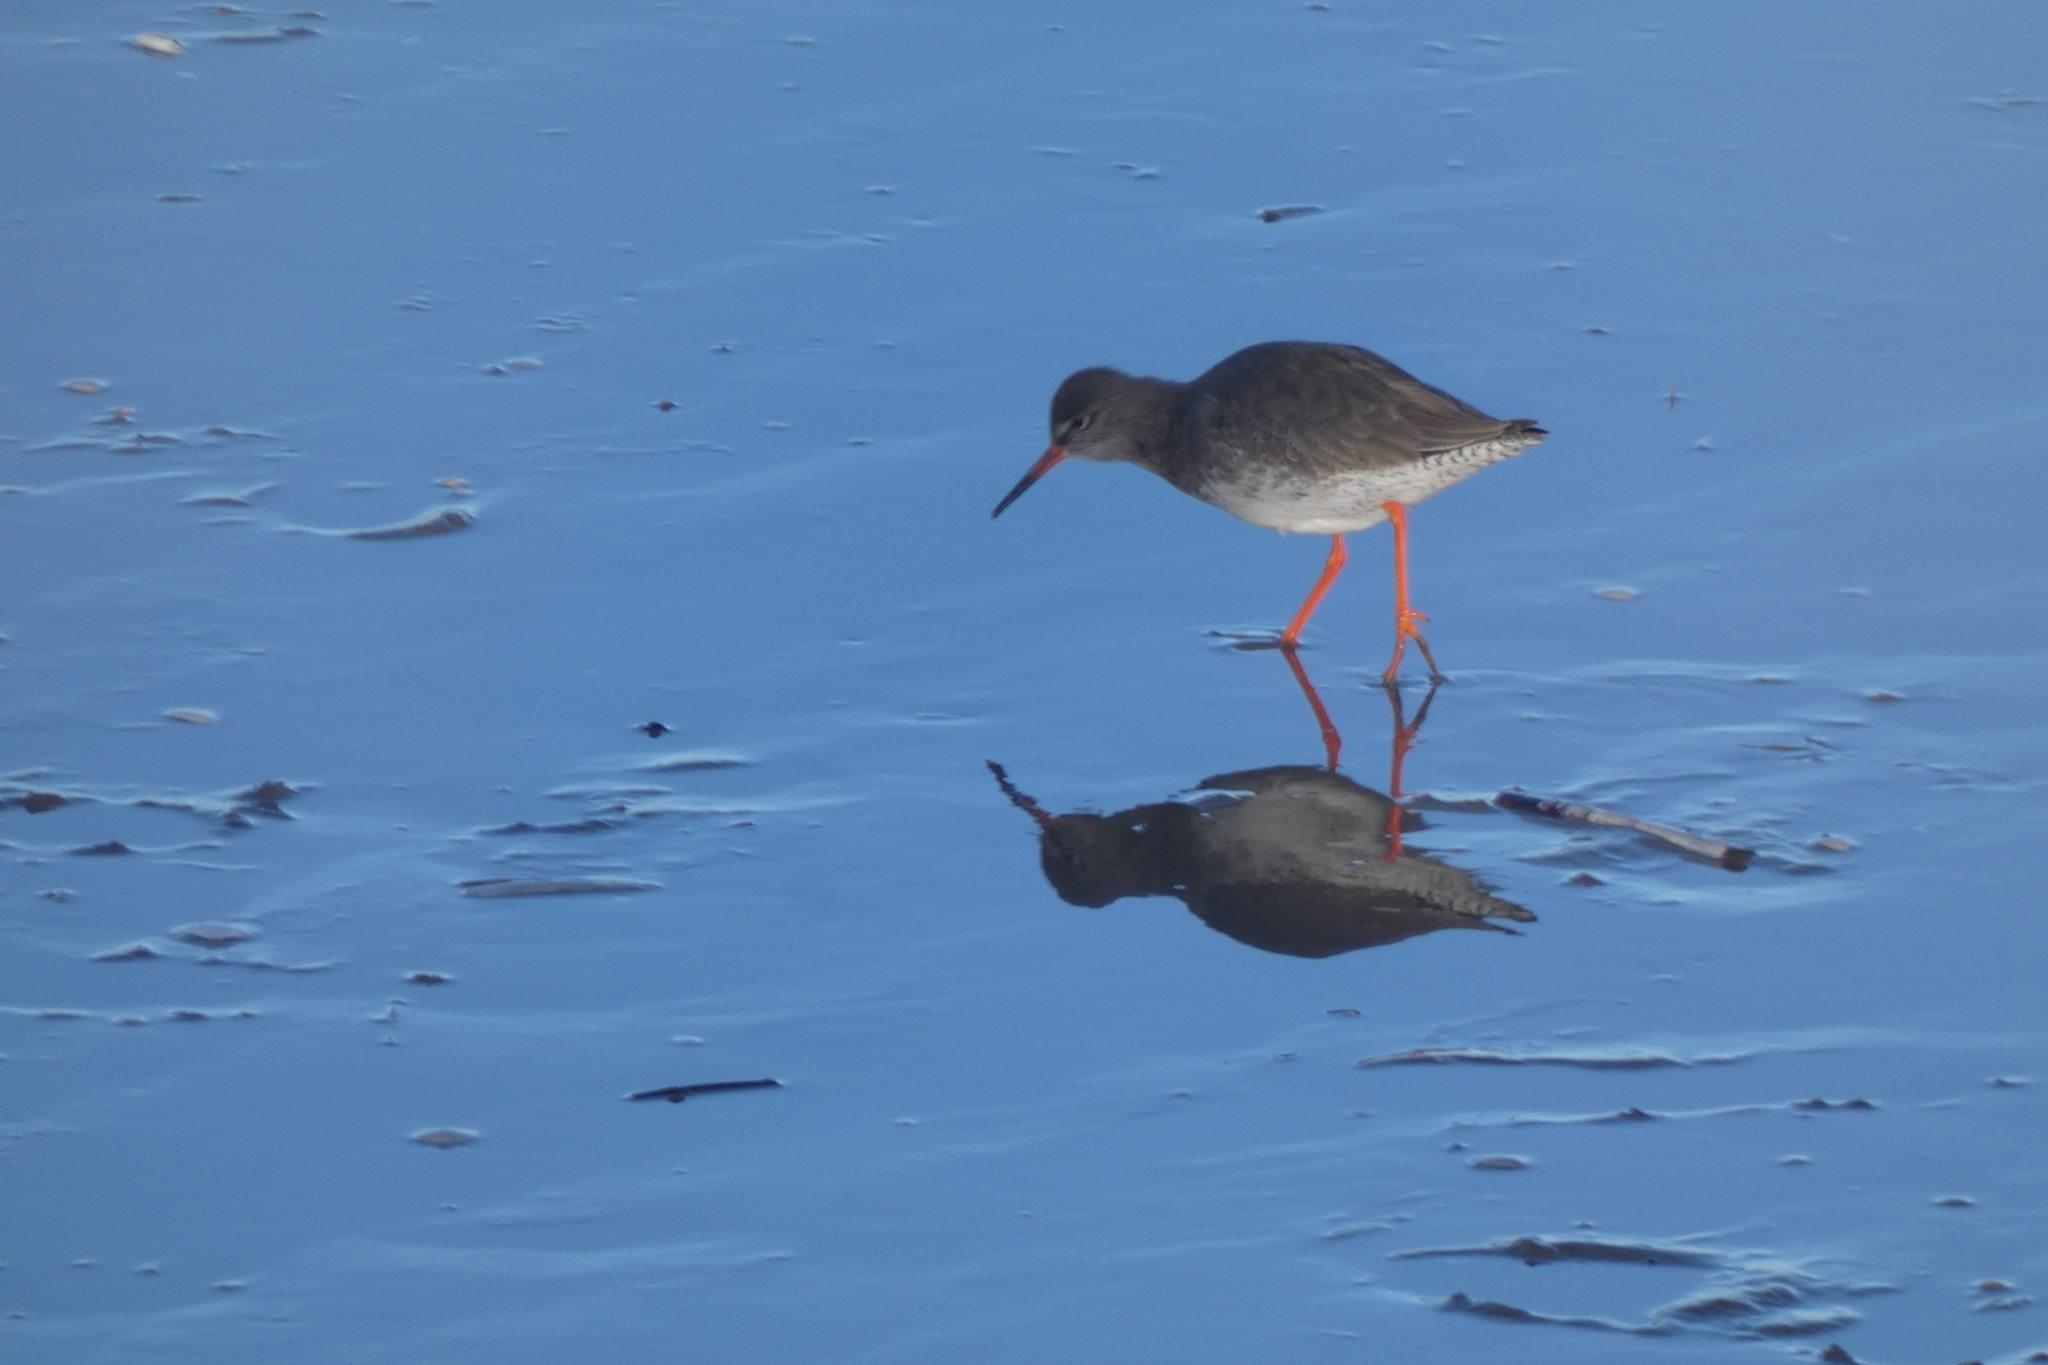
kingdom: Animalia
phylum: Chordata
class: Aves
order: Charadriiformes
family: Scolopacidae
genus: Tringa
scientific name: Tringa totanus
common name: Common redshank
